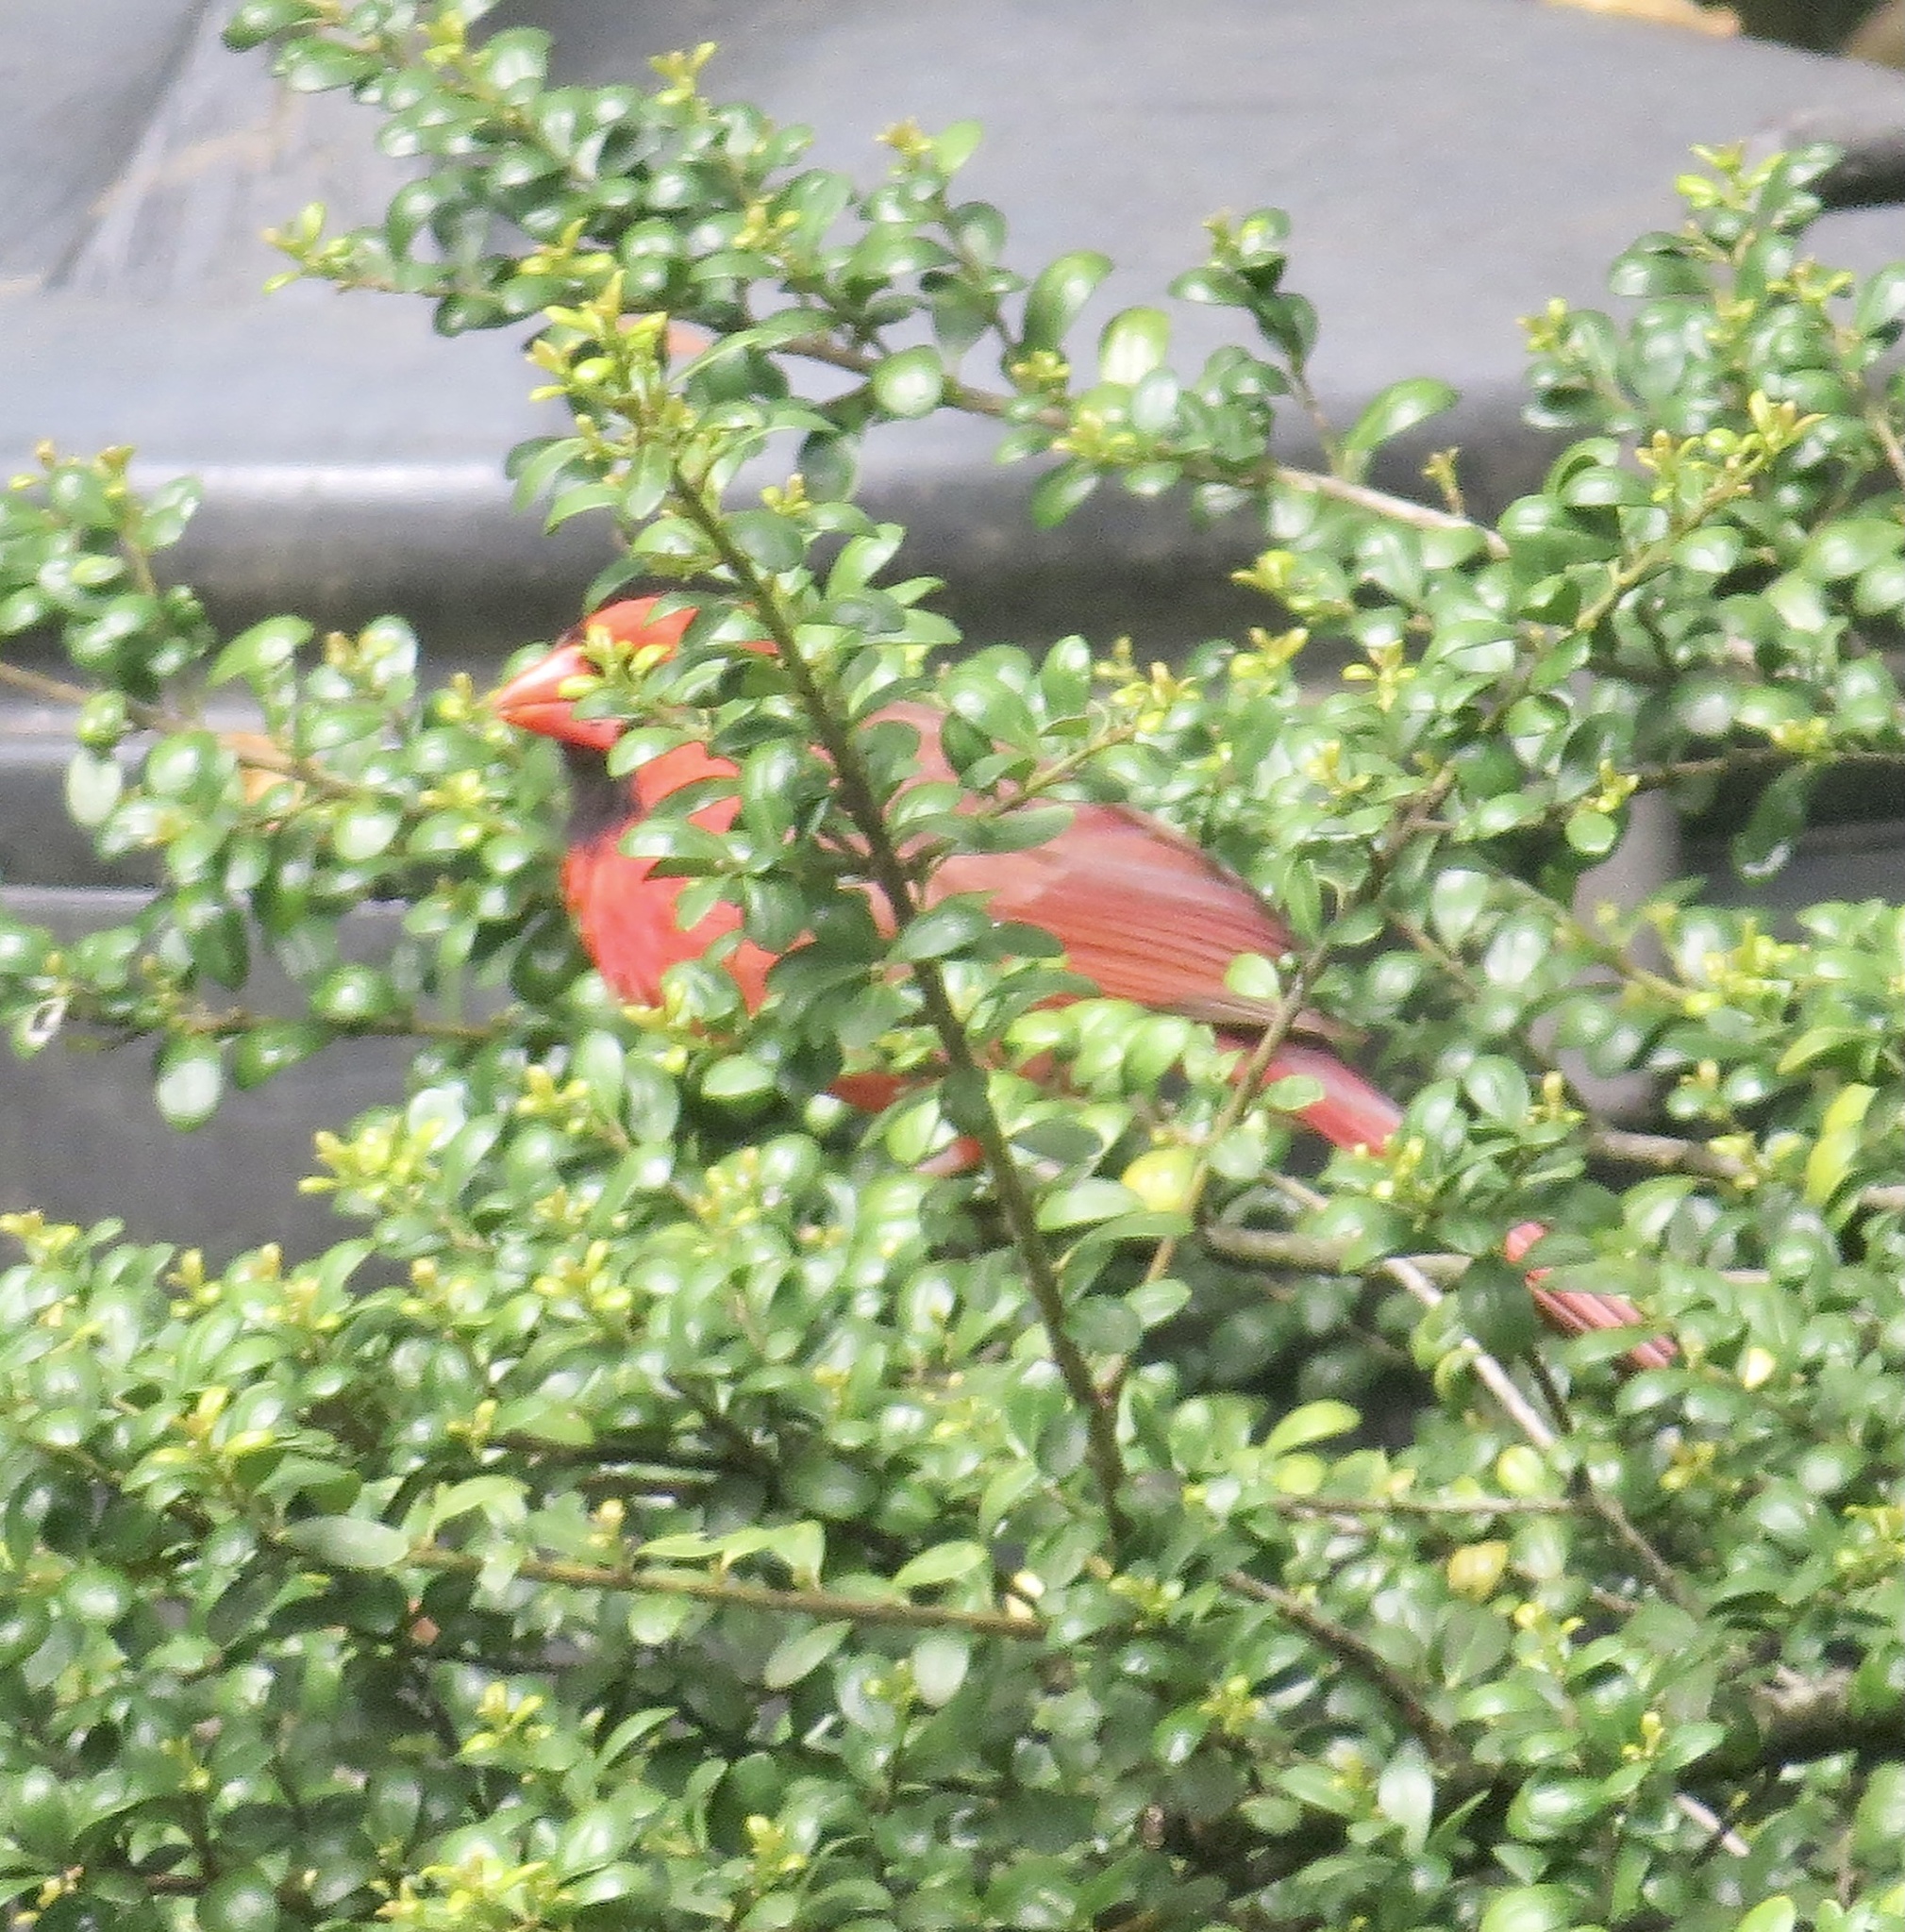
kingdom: Animalia
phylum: Chordata
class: Aves
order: Passeriformes
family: Cardinalidae
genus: Cardinalis
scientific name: Cardinalis cardinalis
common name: Northern cardinal
